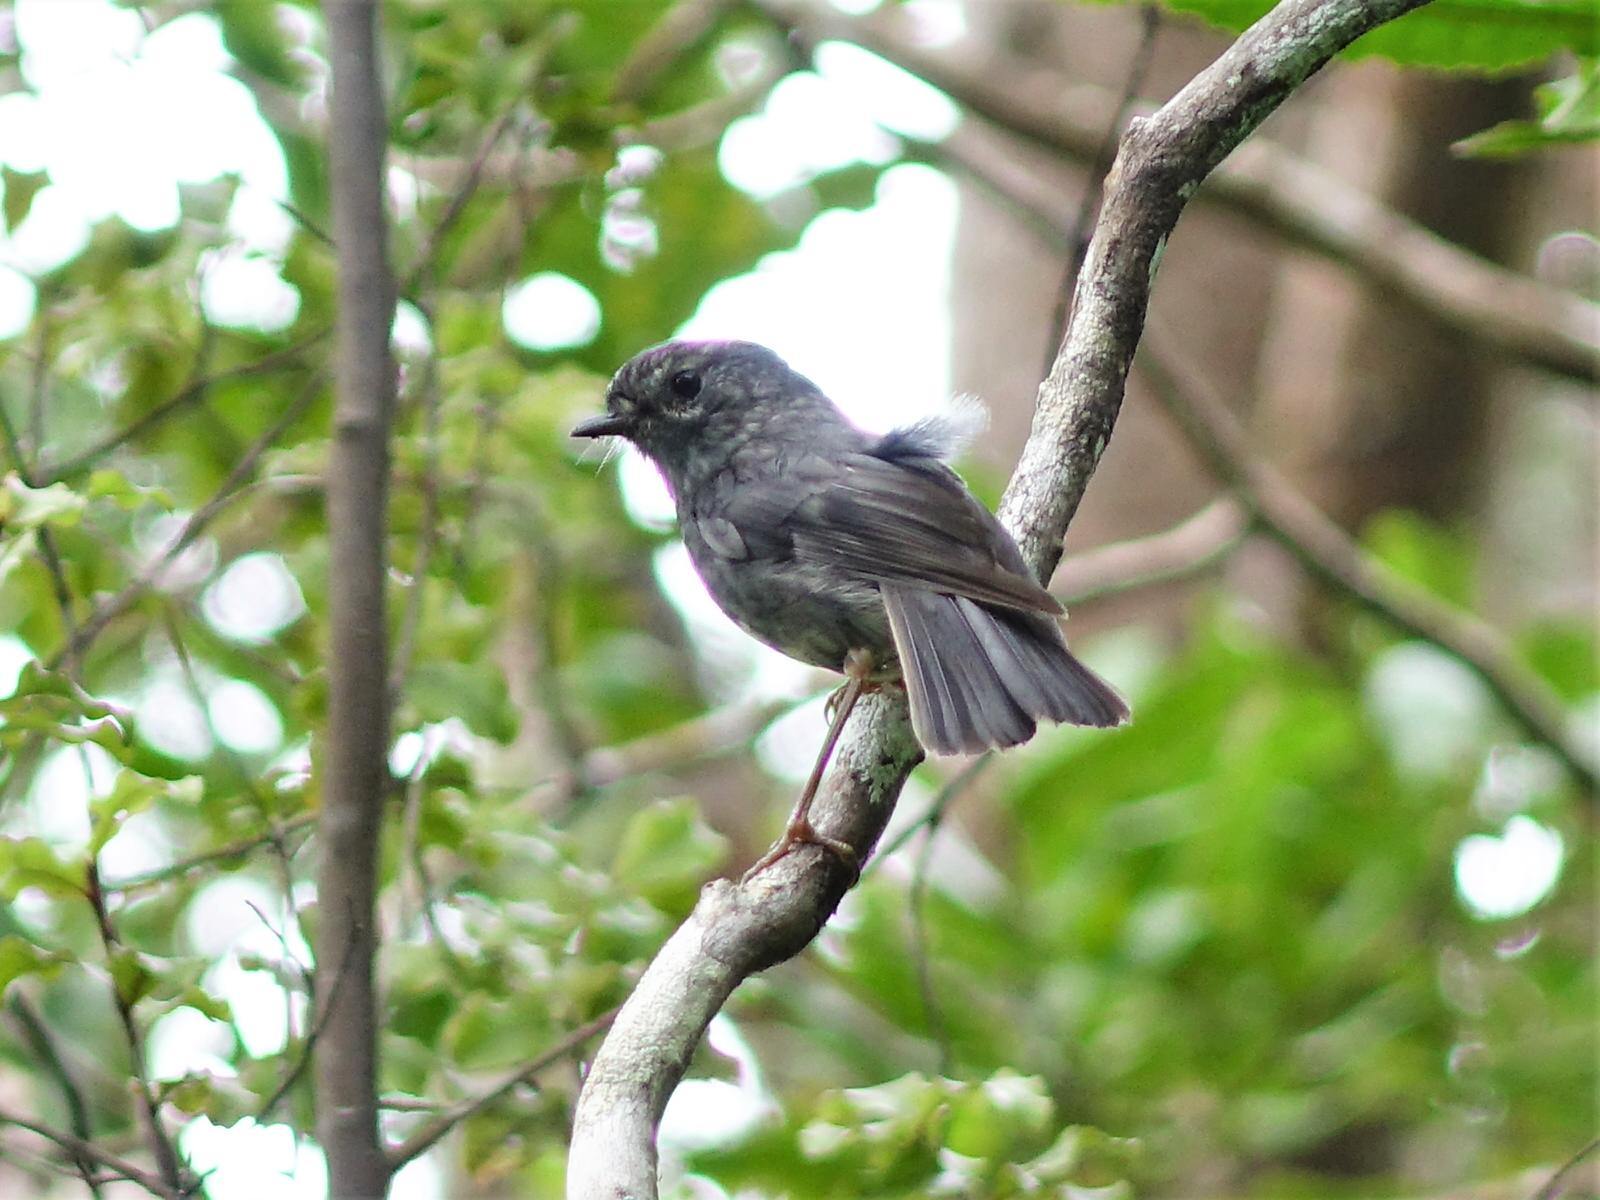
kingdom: Animalia
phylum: Chordata
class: Aves
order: Passeriformes
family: Petroicidae
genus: Petroica
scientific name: Petroica australis
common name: New zealand robin
